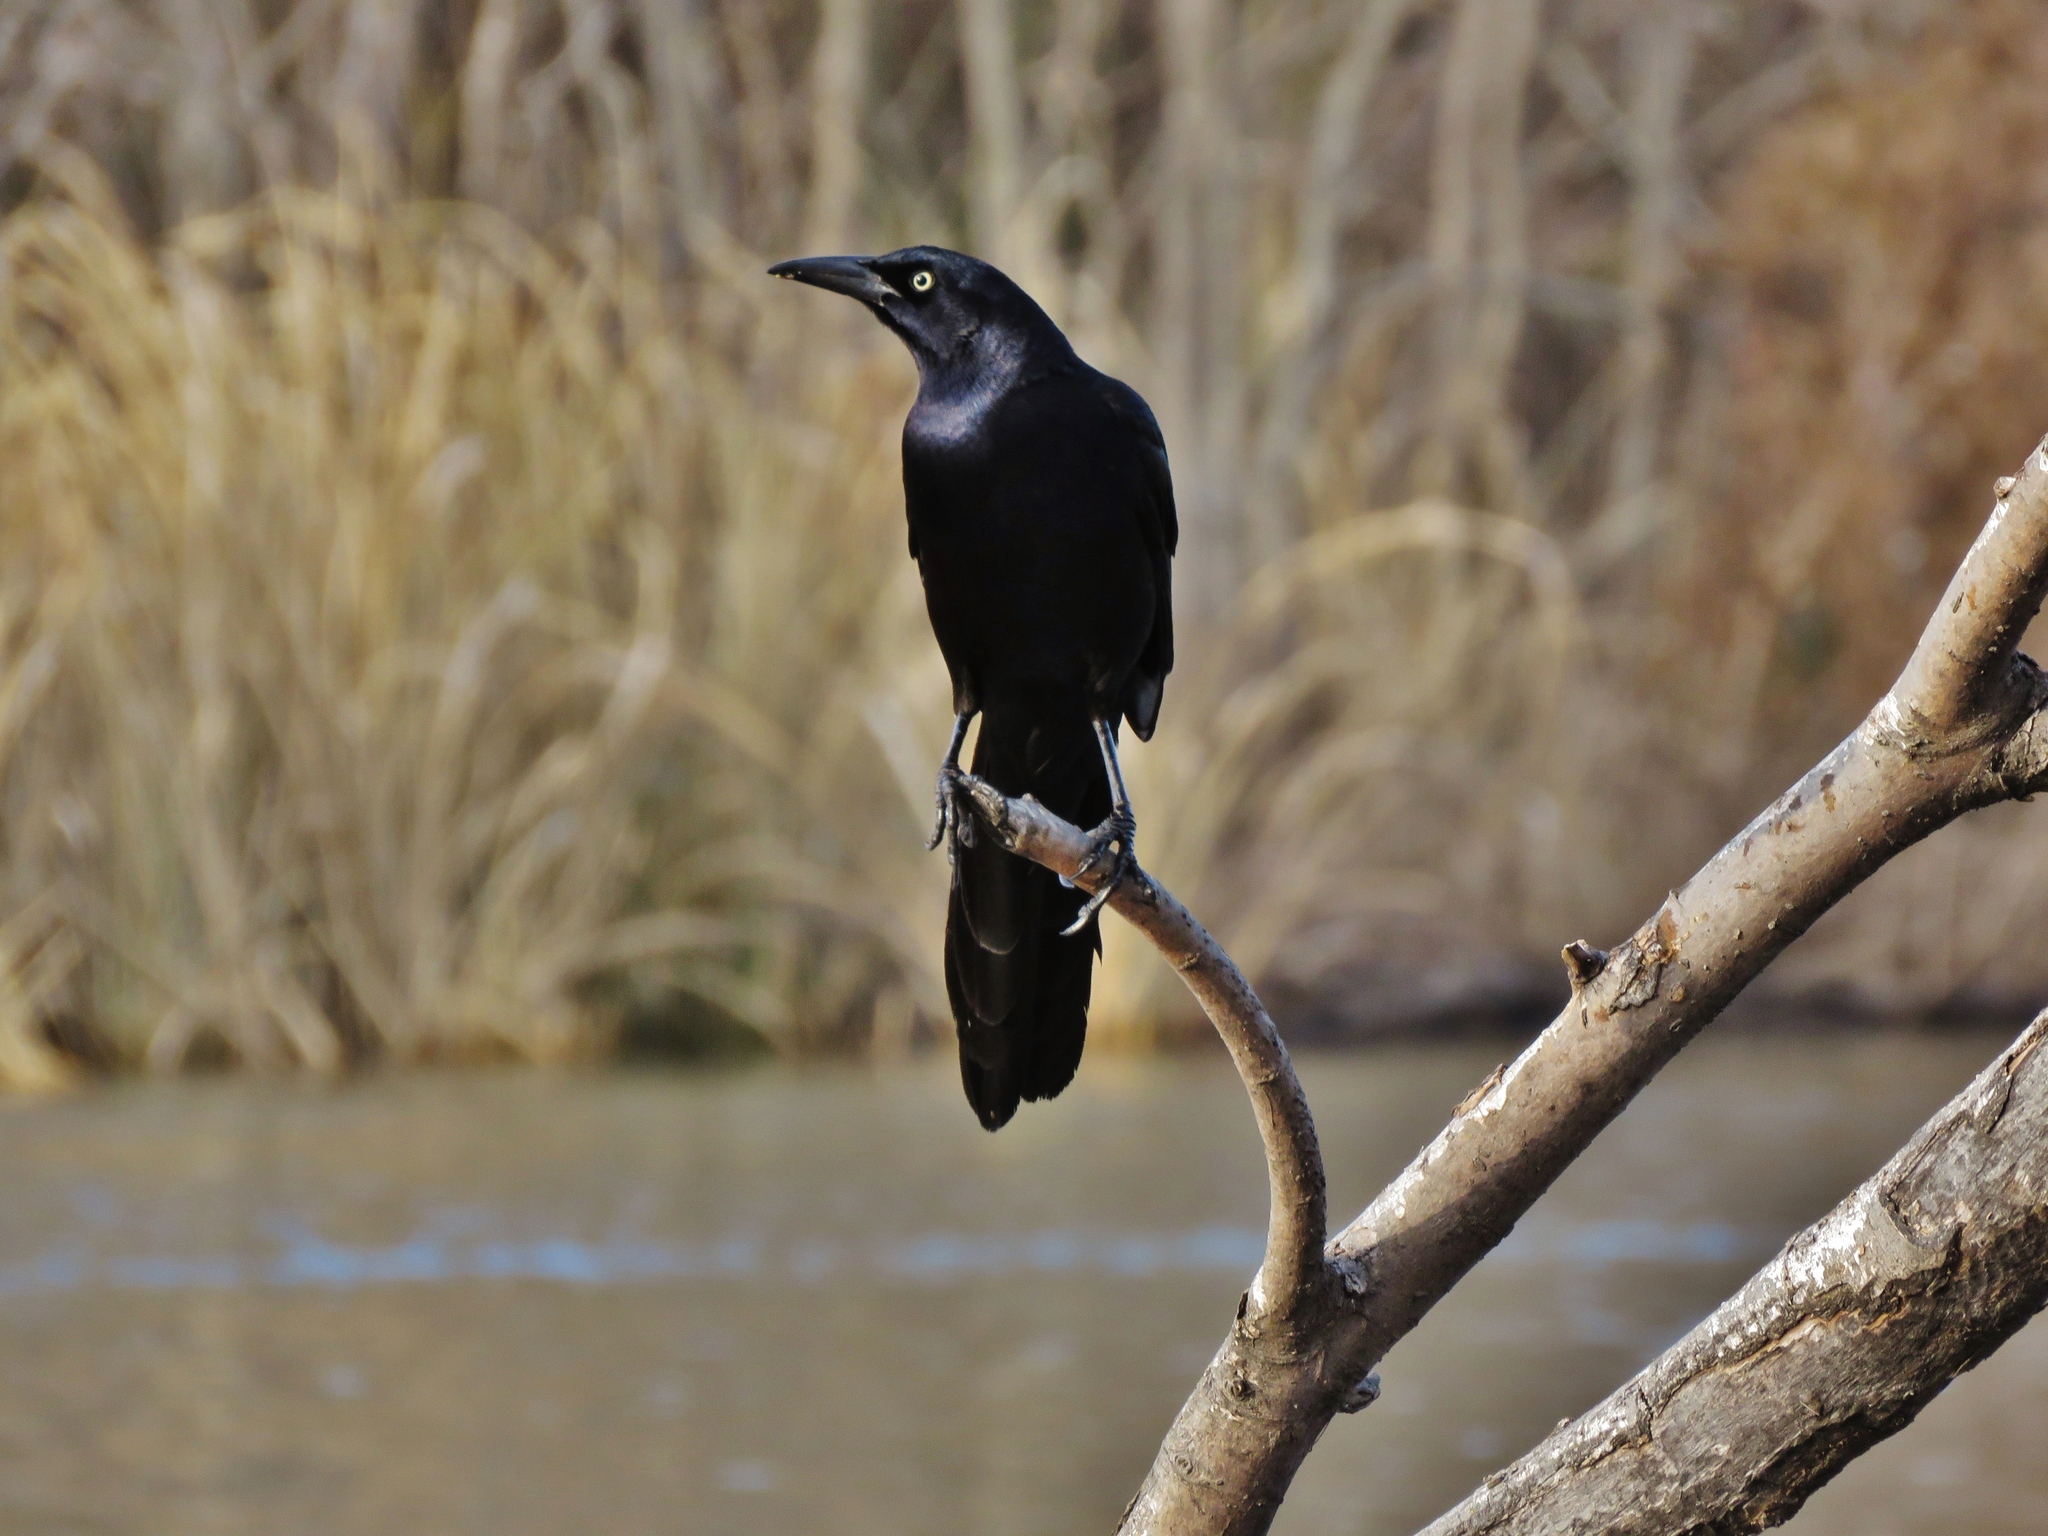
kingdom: Animalia
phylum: Chordata
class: Aves
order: Passeriformes
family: Icteridae
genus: Quiscalus
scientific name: Quiscalus mexicanus
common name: Great-tailed grackle
